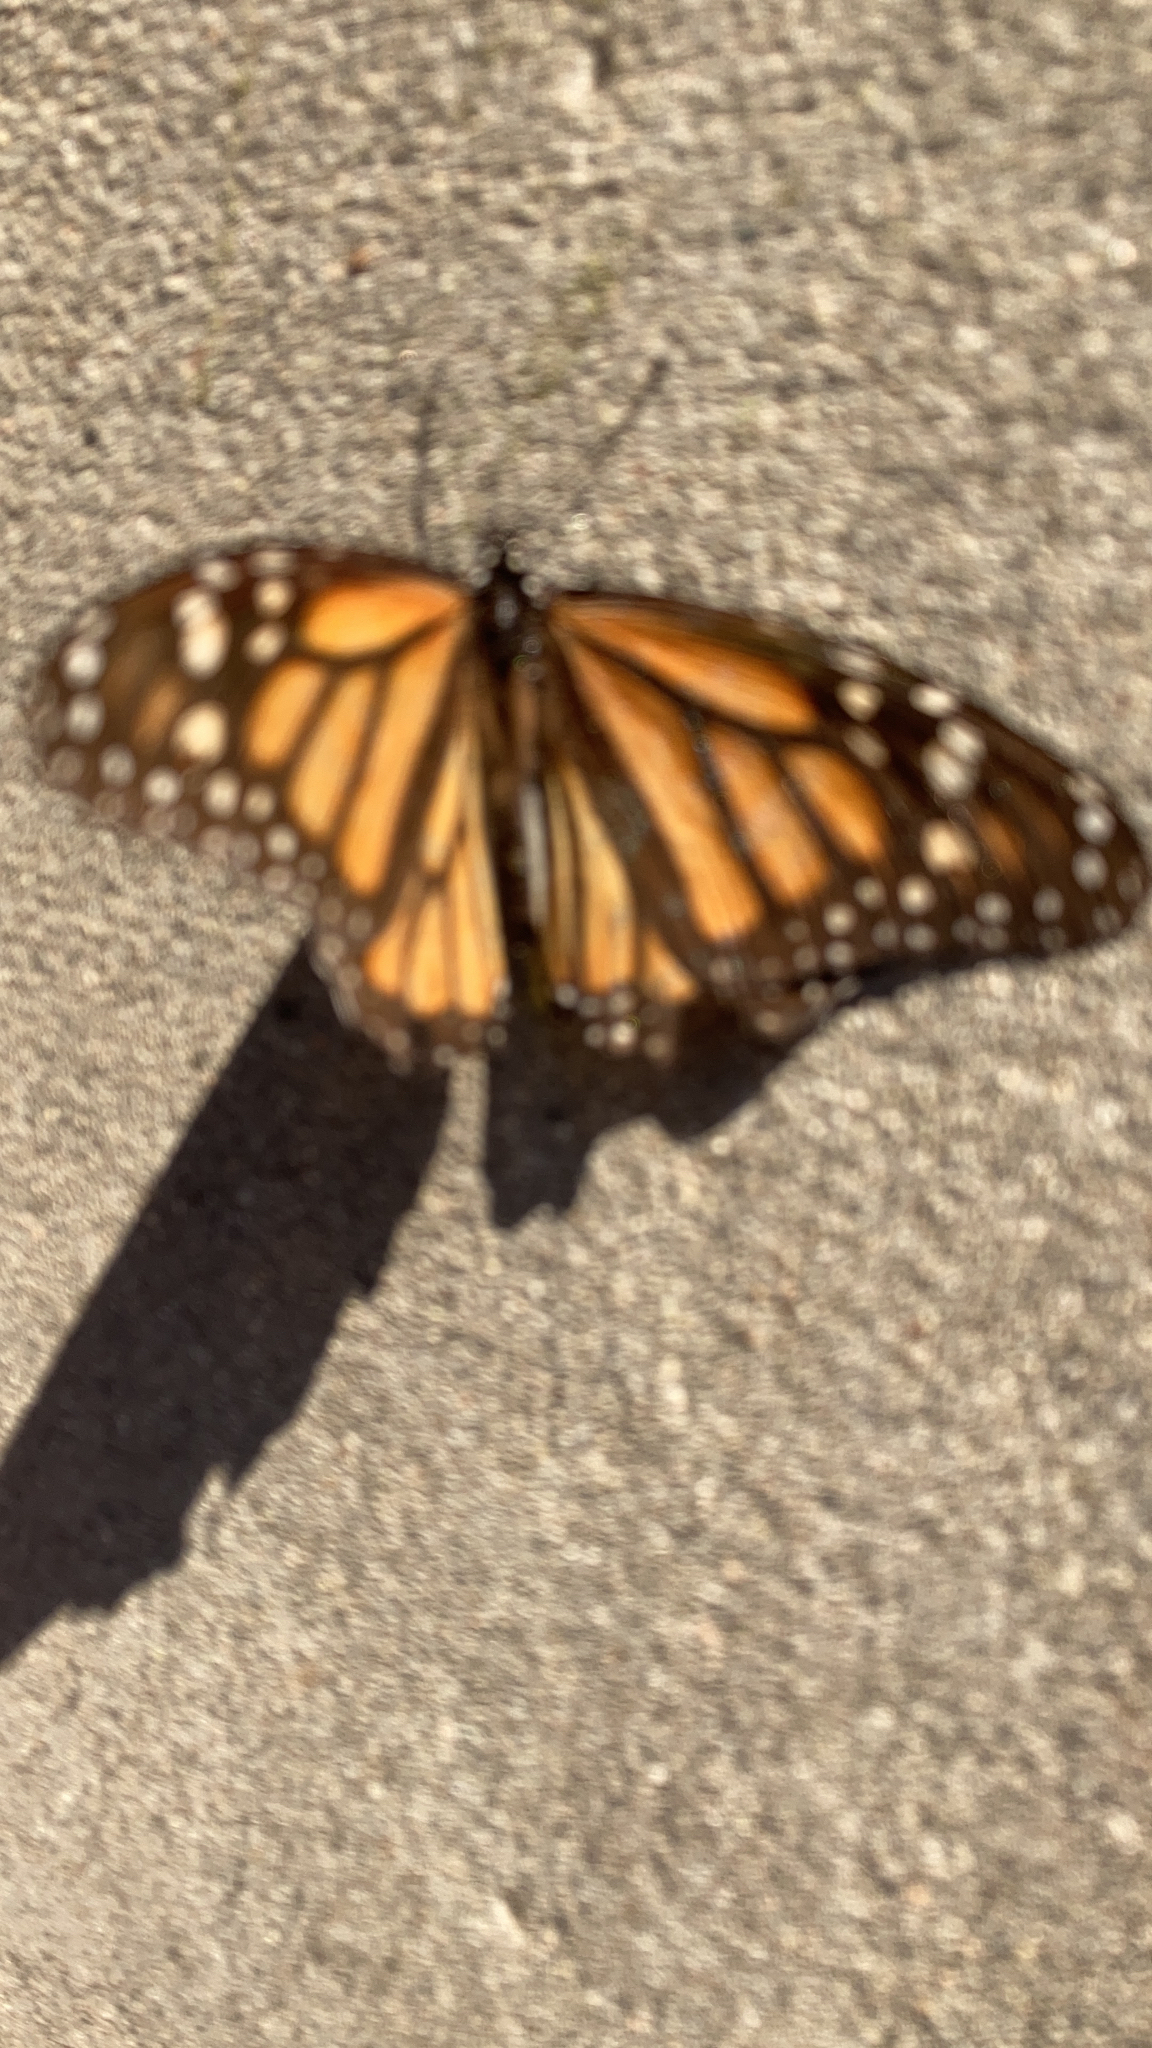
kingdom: Animalia
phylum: Arthropoda
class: Insecta
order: Lepidoptera
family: Nymphalidae
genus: Danaus
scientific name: Danaus plexippus
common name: Monarch
